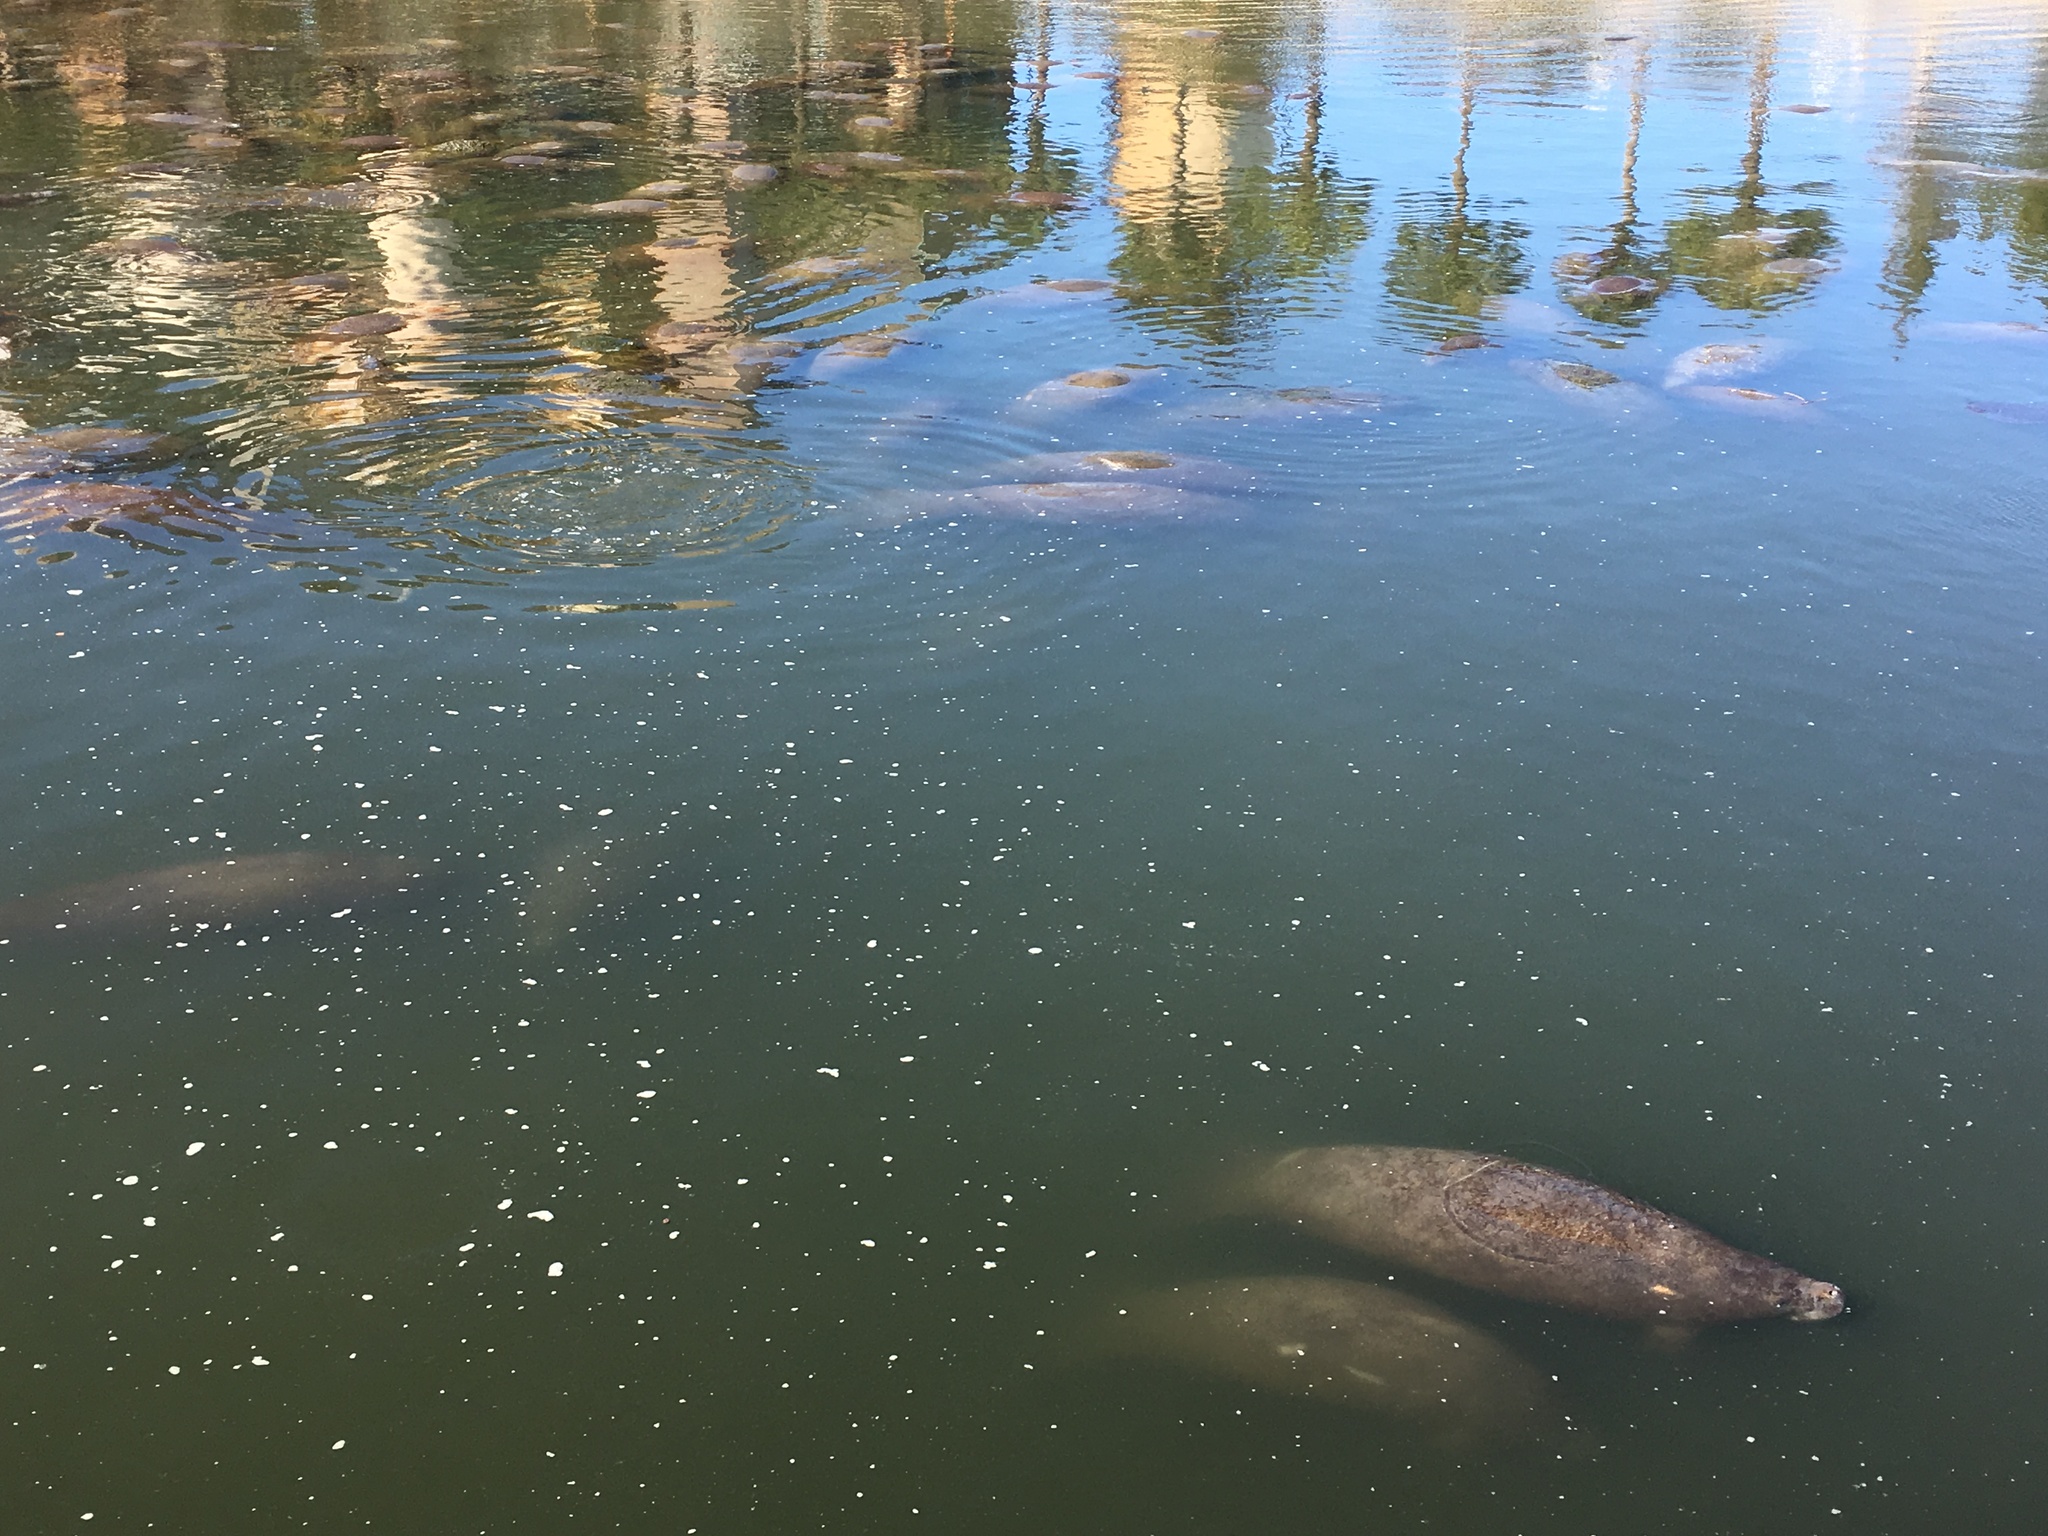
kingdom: Animalia
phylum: Chordata
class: Mammalia
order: Sirenia
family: Trichechidae
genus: Trichechus
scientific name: Trichechus manatus
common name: West indian manatee
